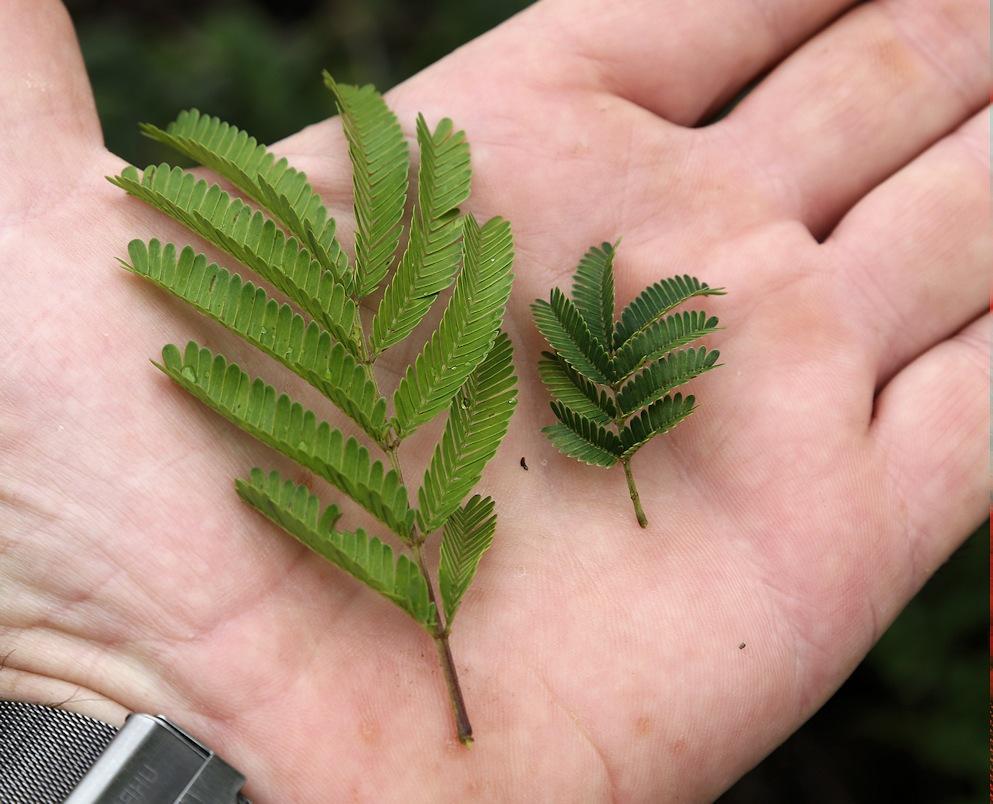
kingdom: Plantae
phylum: Tracheophyta
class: Magnoliopsida
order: Fabales
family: Fabaceae
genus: Dichrostachys
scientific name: Dichrostachys cinerea
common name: Sicklebush
